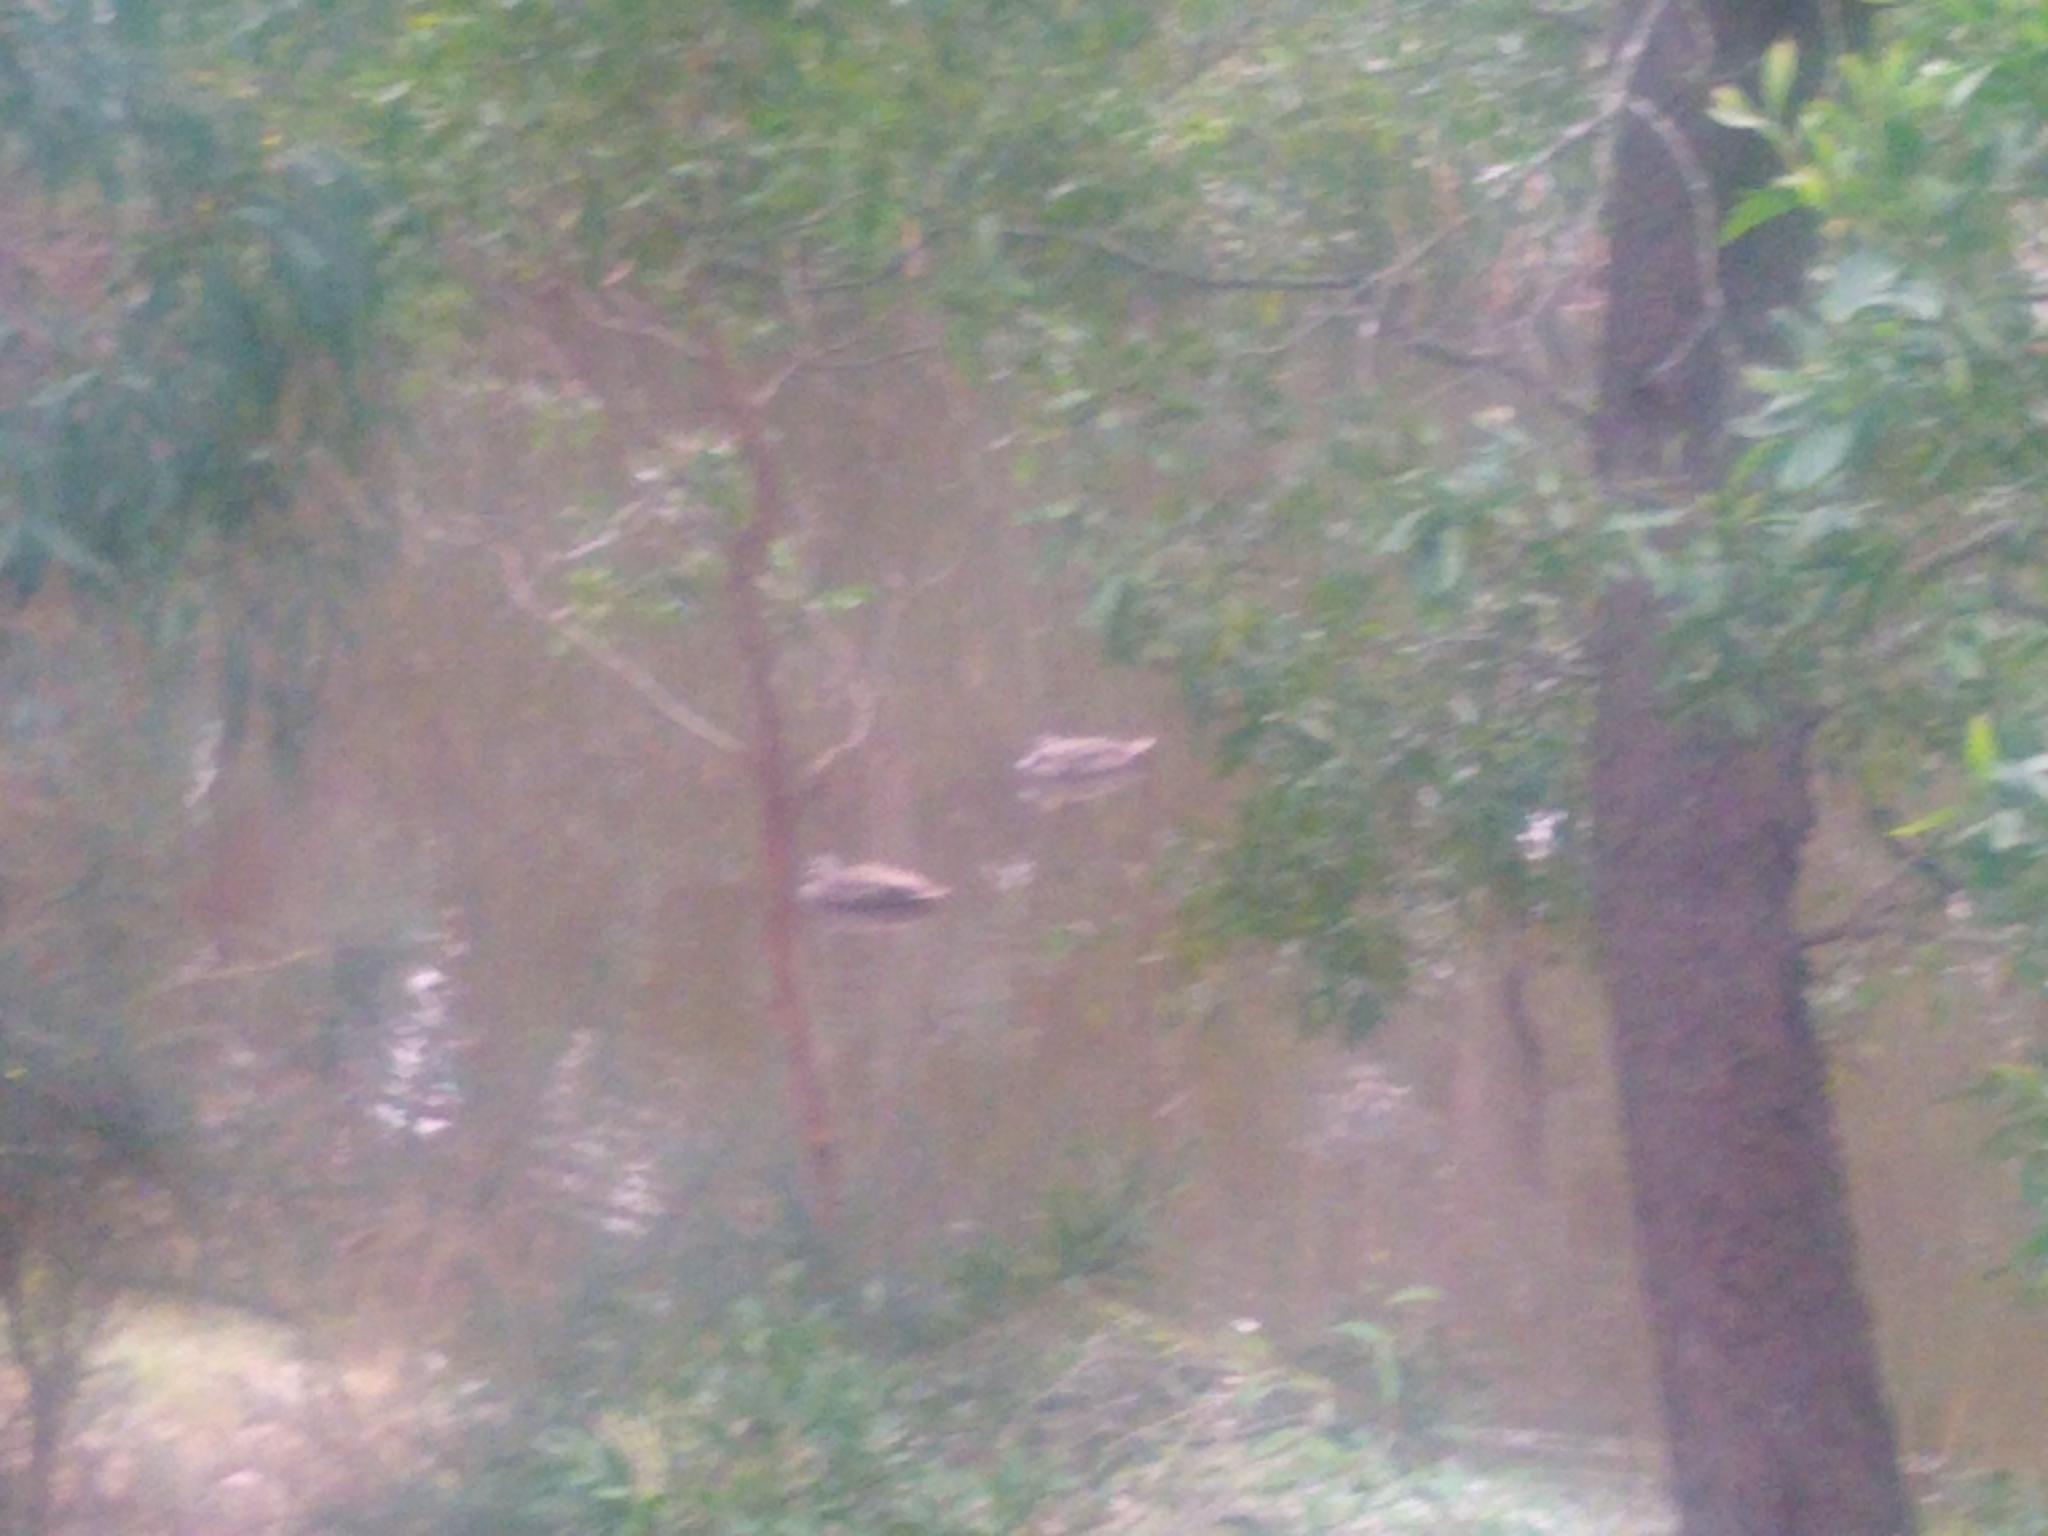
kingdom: Animalia
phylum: Chordata
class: Aves
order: Anseriformes
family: Anatidae
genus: Anas
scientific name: Anas superciliosa
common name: Pacific black duck
